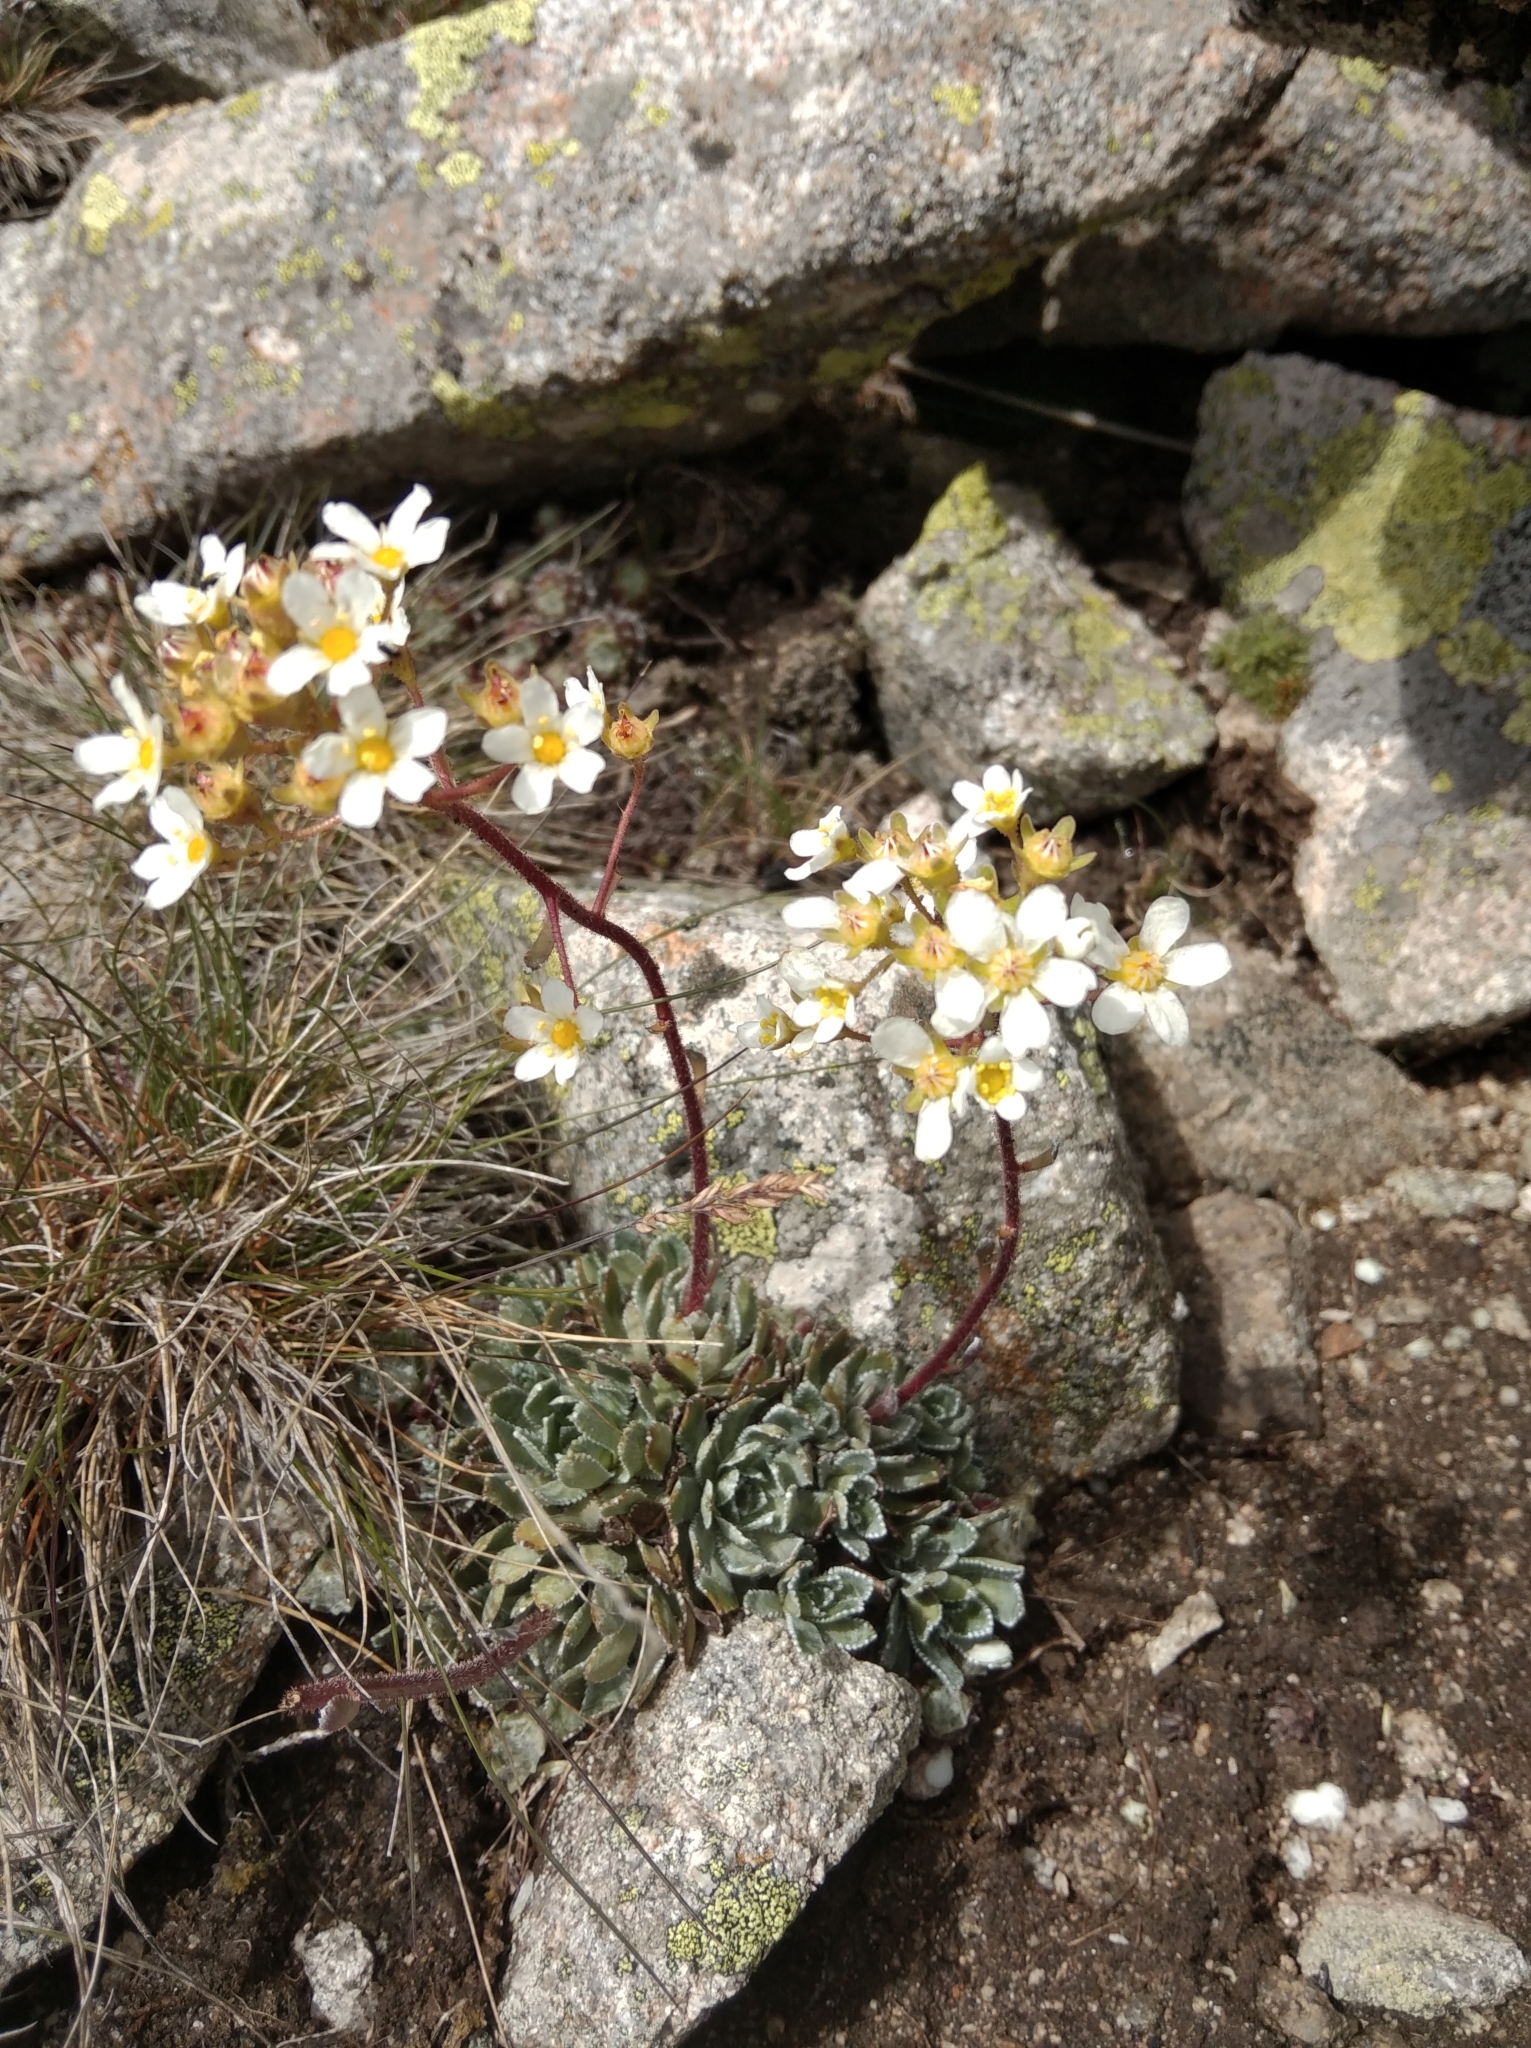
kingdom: Plantae
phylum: Tracheophyta
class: Magnoliopsida
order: Saxifragales
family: Saxifragaceae
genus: Saxifraga
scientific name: Saxifraga paniculata
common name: Livelong saxifrage
